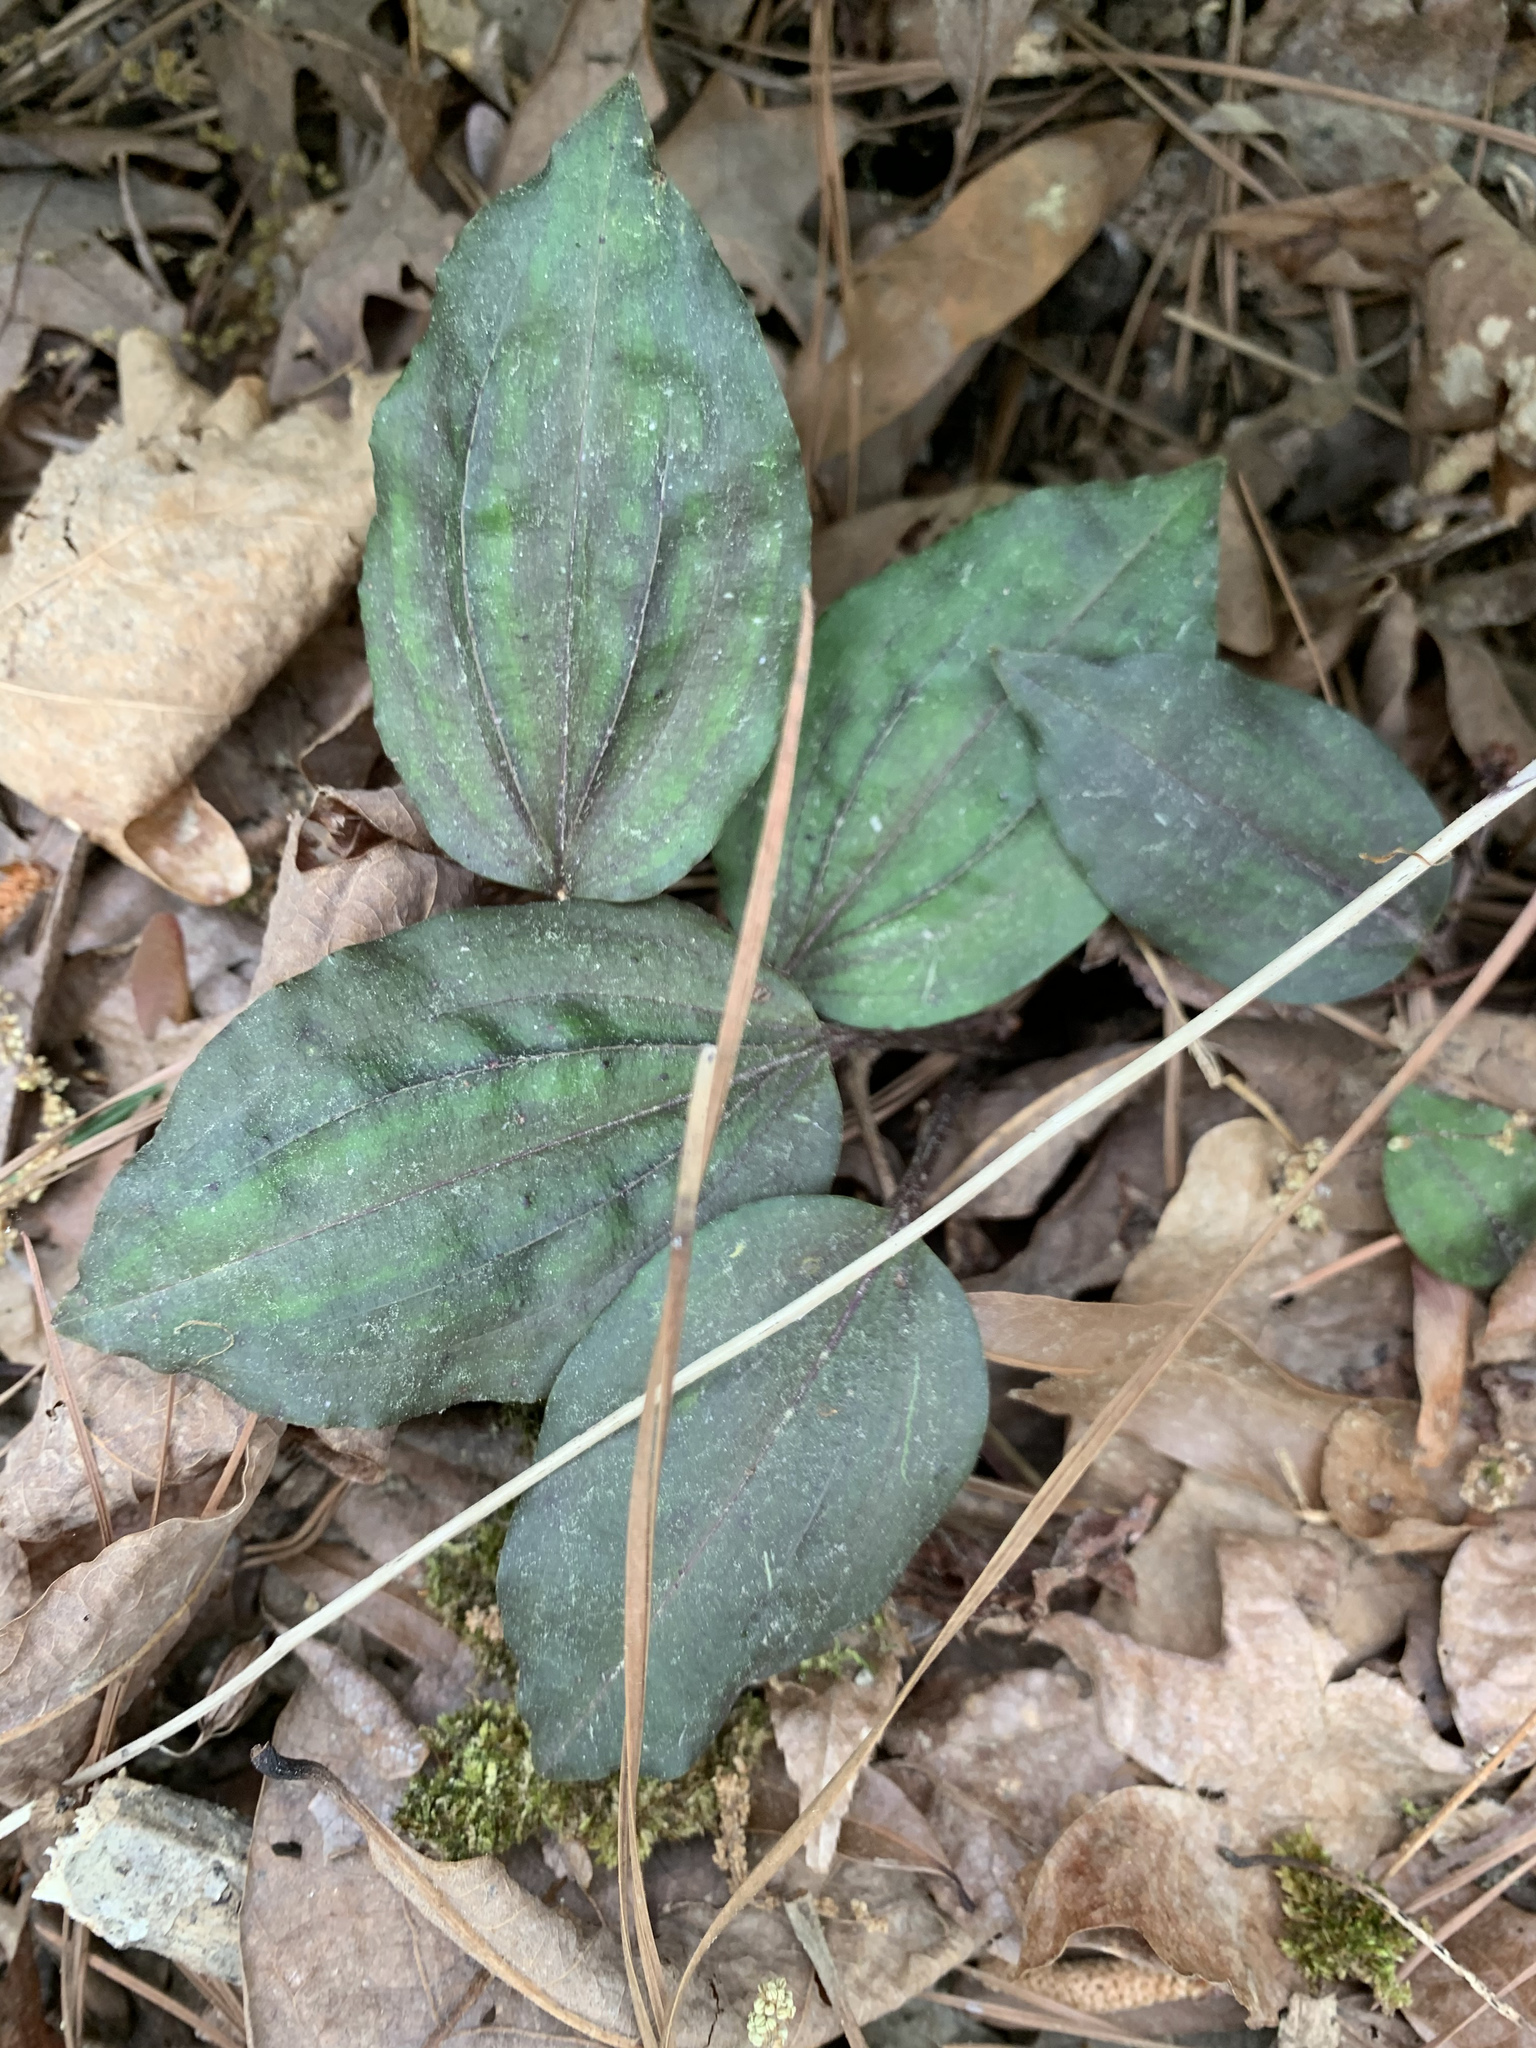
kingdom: Plantae
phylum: Tracheophyta
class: Liliopsida
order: Asparagales
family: Orchidaceae
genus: Tipularia
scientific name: Tipularia discolor
